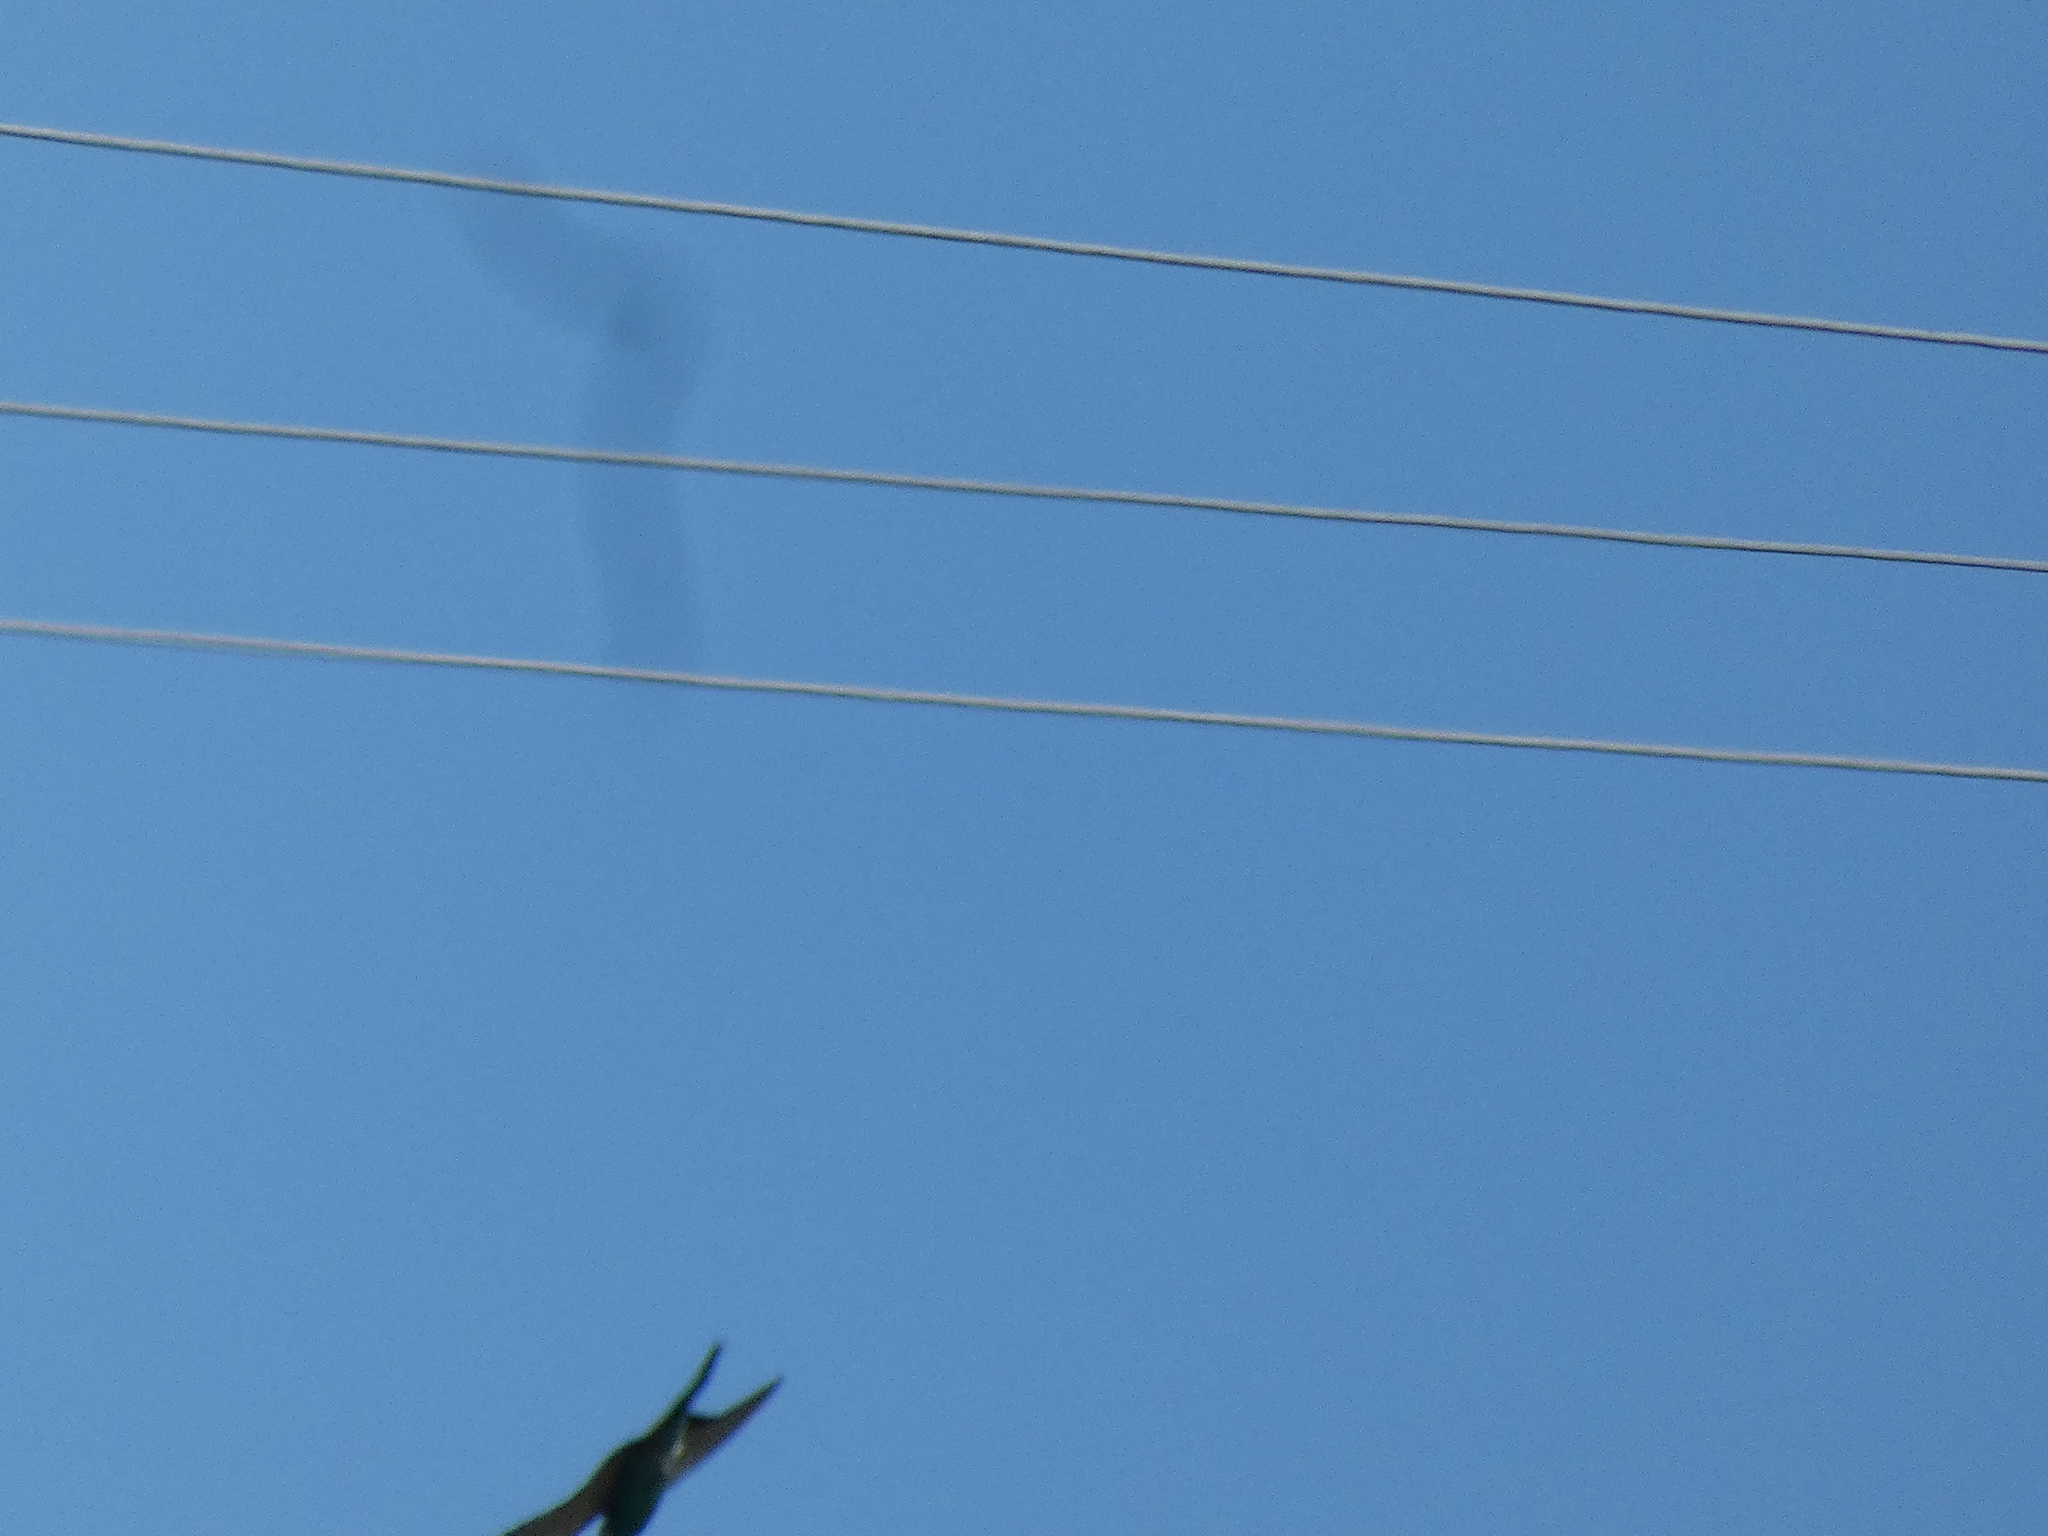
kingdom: Animalia
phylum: Chordata
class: Aves
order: Coraciiformes
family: Meropidae
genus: Merops
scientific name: Merops apiaster
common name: European bee-eater
